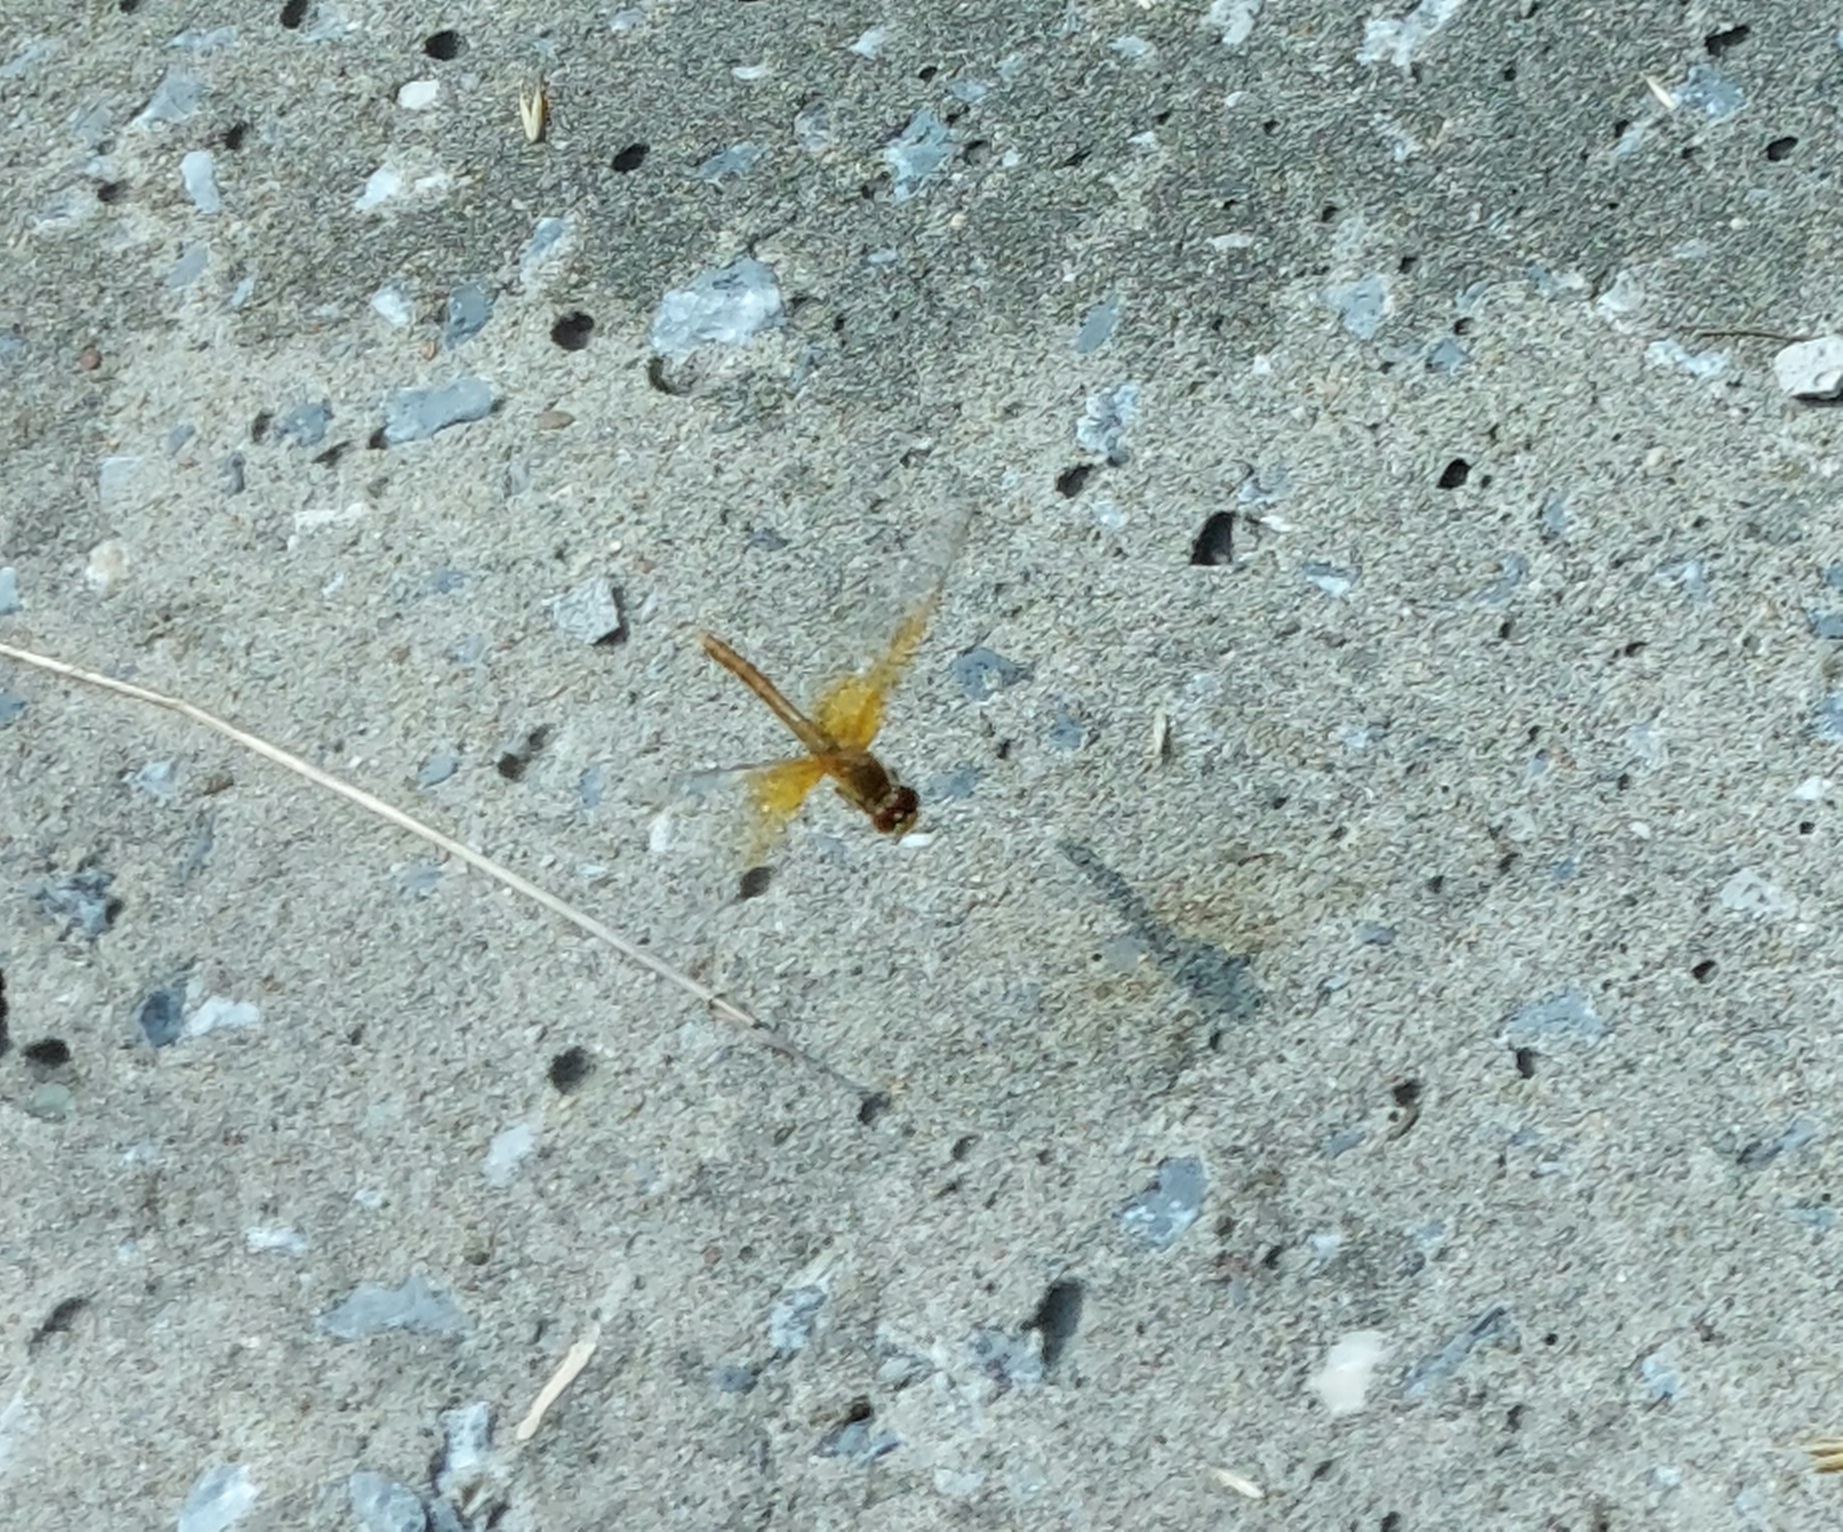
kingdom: Animalia
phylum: Arthropoda
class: Insecta
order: Odonata
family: Libellulidae
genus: Sympetrum
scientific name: Sympetrum flaveolum
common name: Yellow-winged darter
